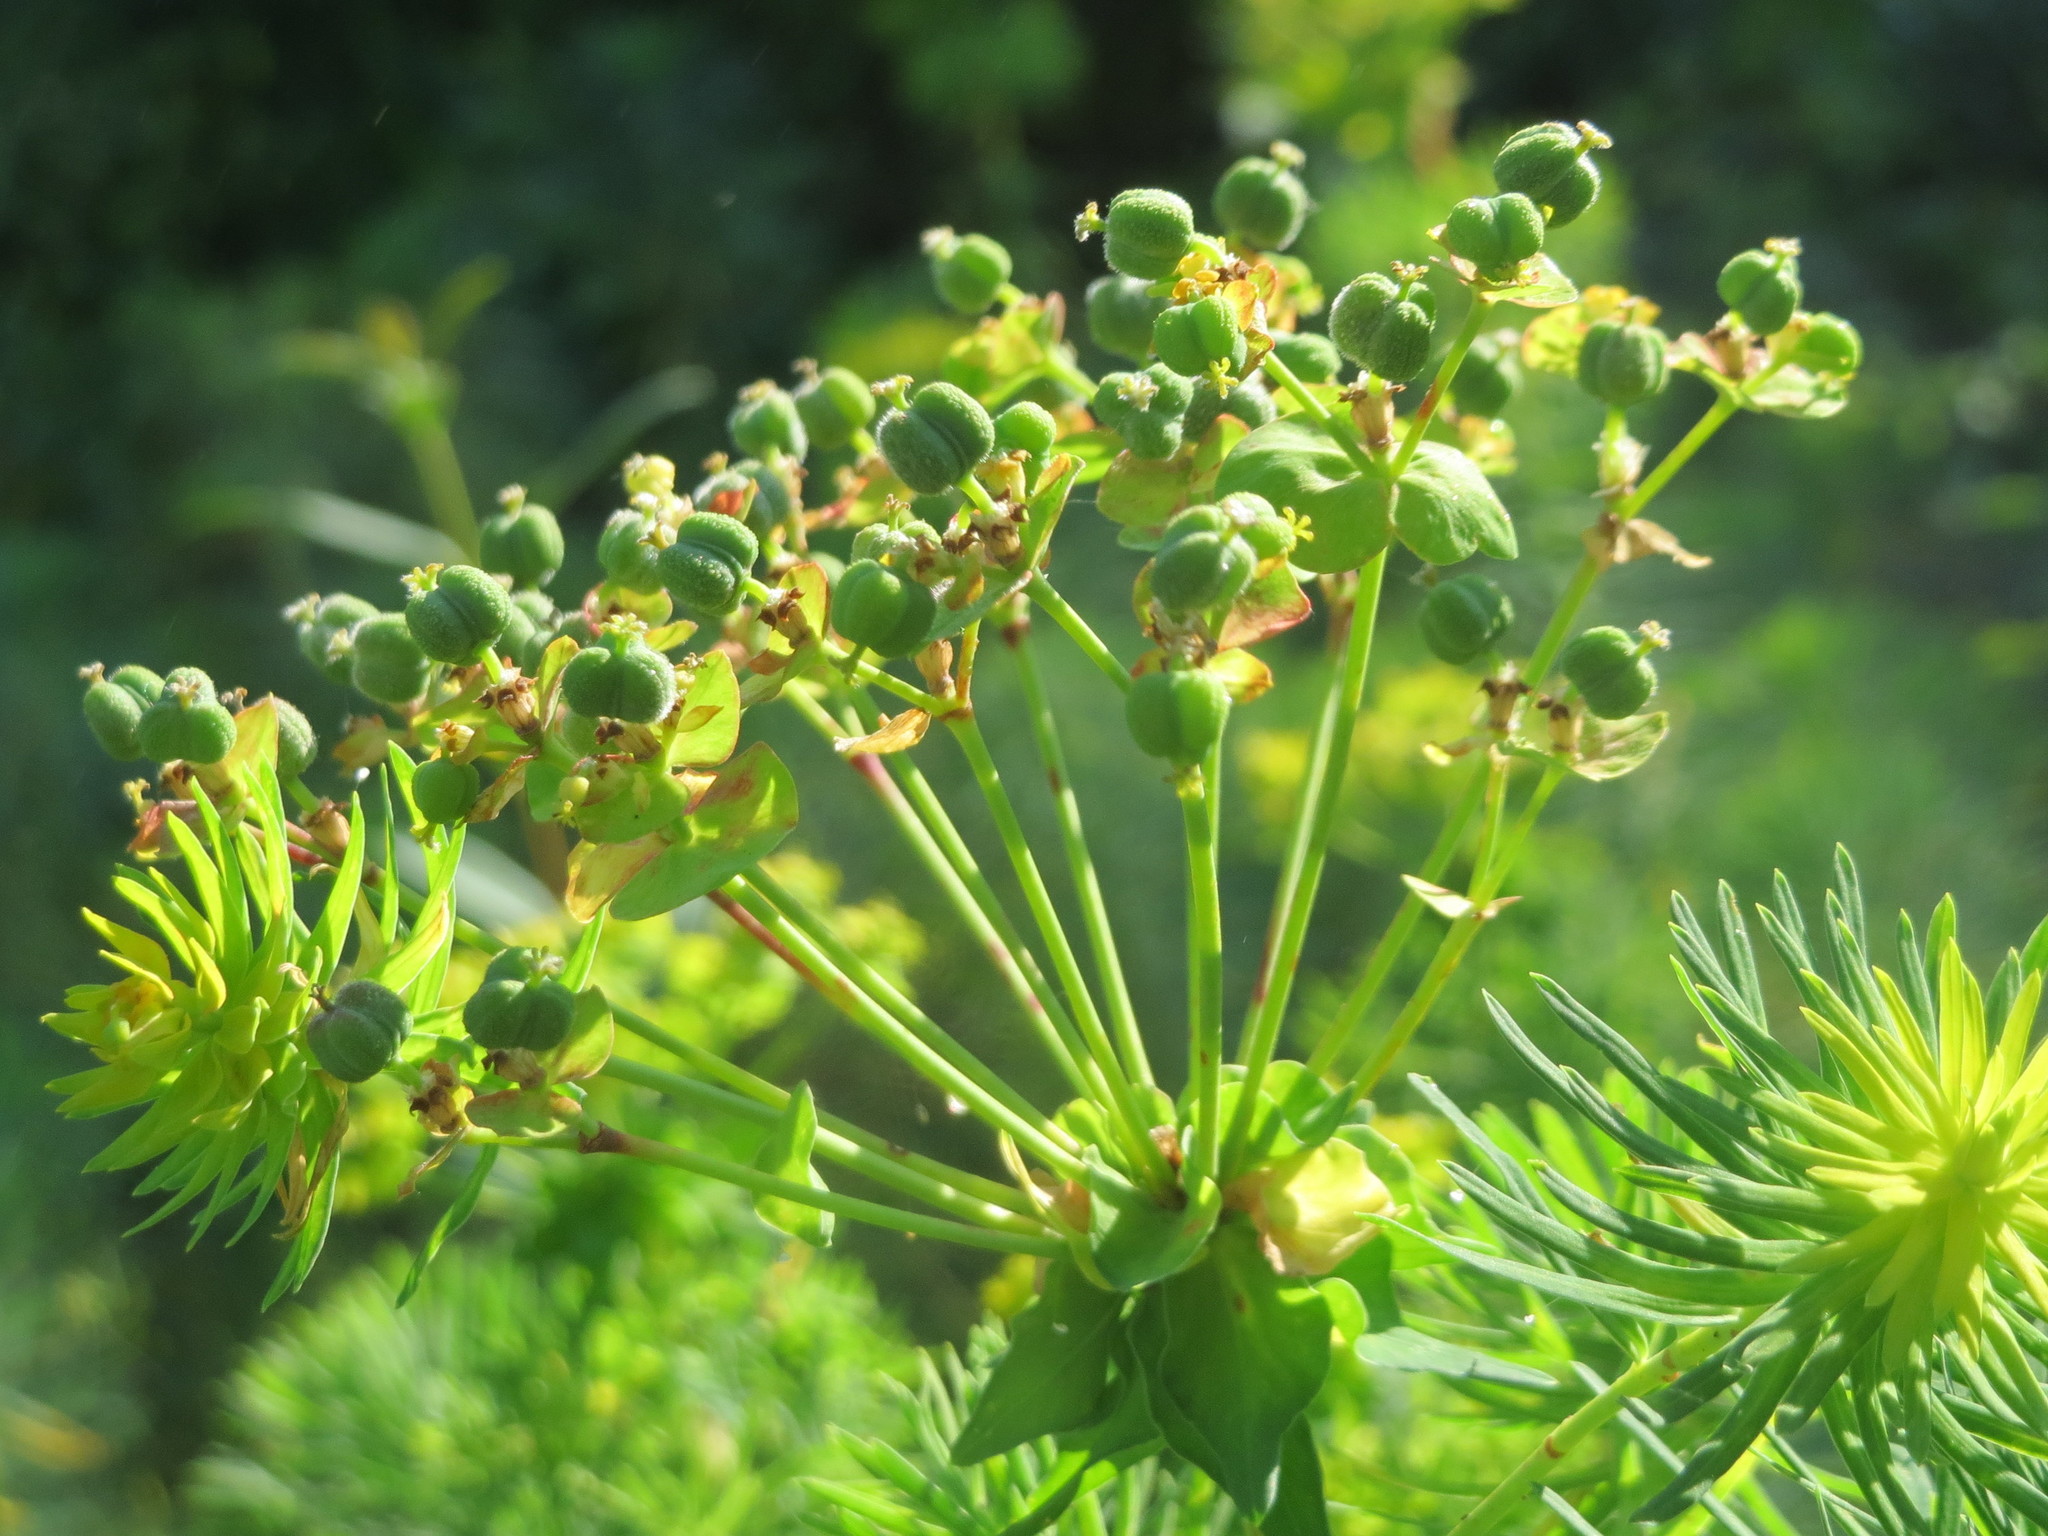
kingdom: Plantae
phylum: Tracheophyta
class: Magnoliopsida
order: Malpighiales
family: Euphorbiaceae
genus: Euphorbia
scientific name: Euphorbia cyparissias
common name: Cypress spurge
